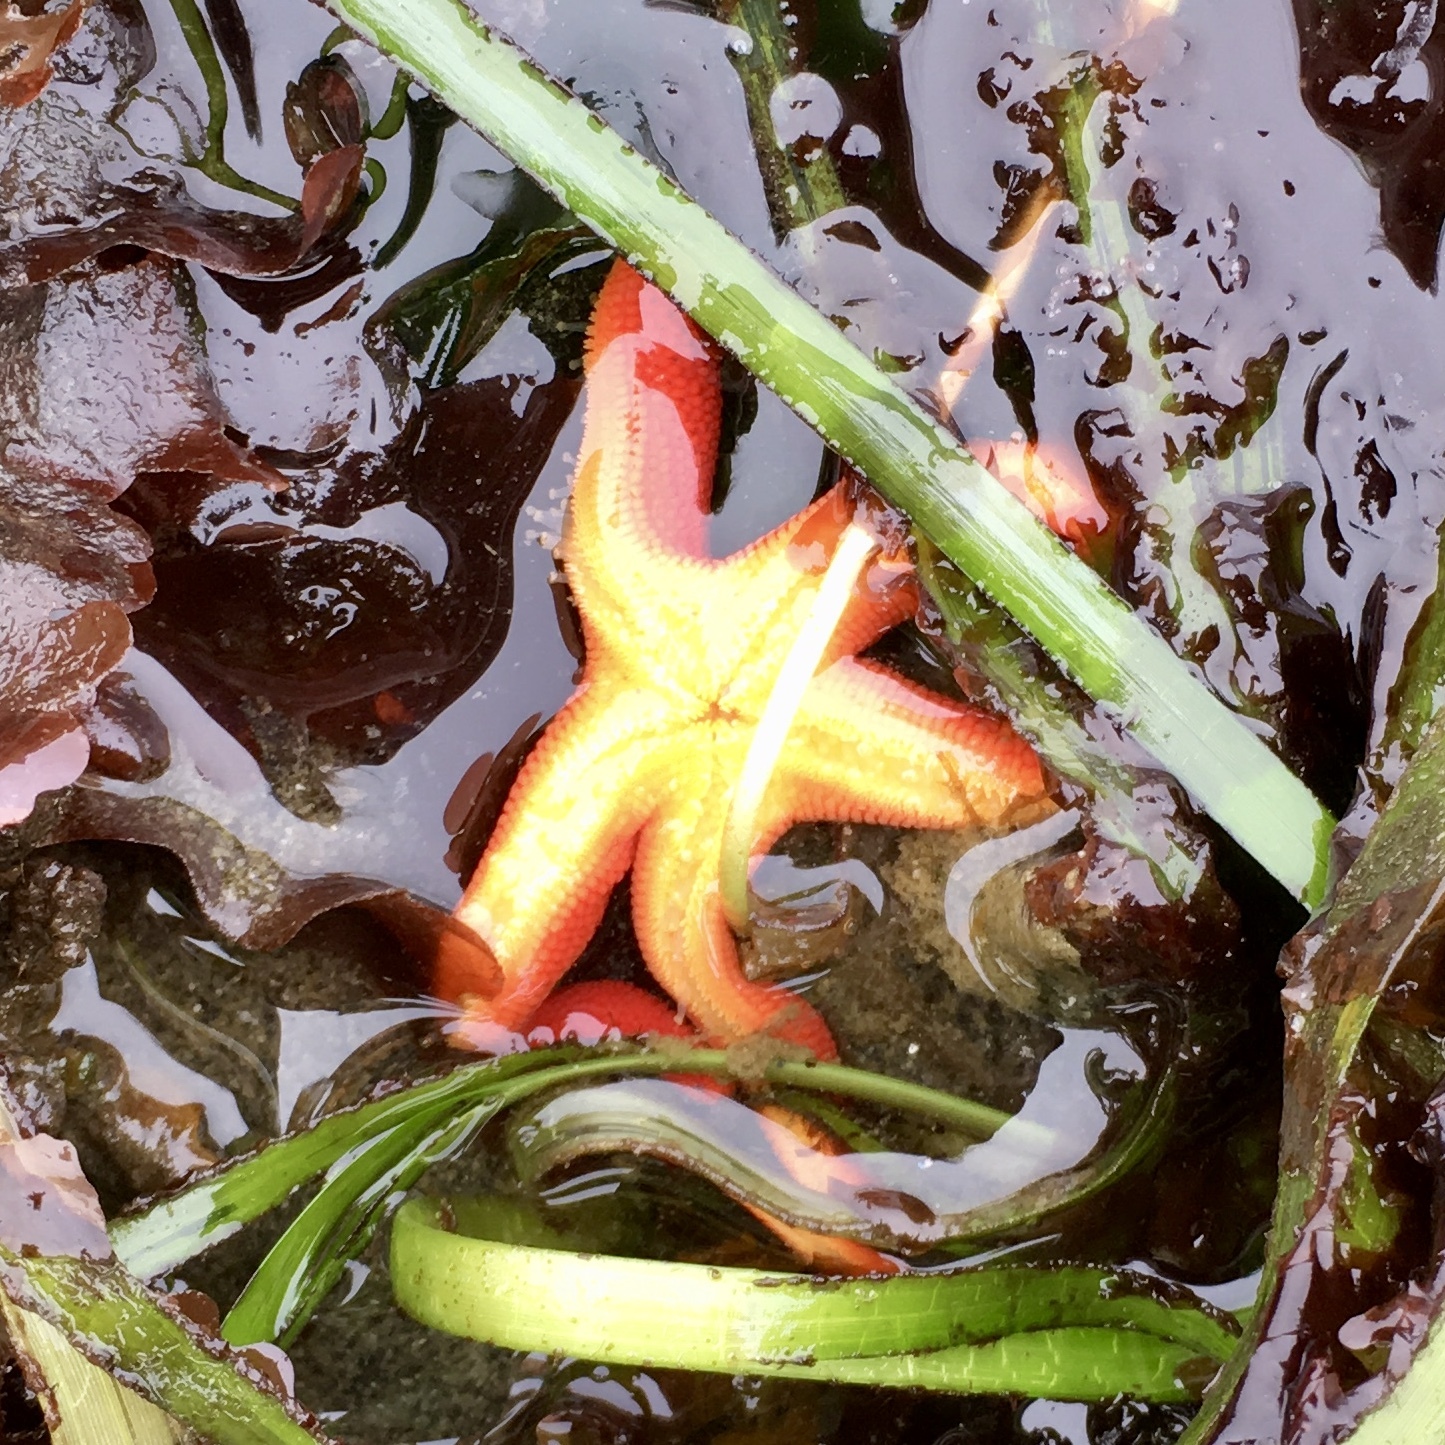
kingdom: Animalia
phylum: Echinodermata
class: Asteroidea
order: Spinulosida
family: Echinasteridae
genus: Henricia
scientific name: Henricia
